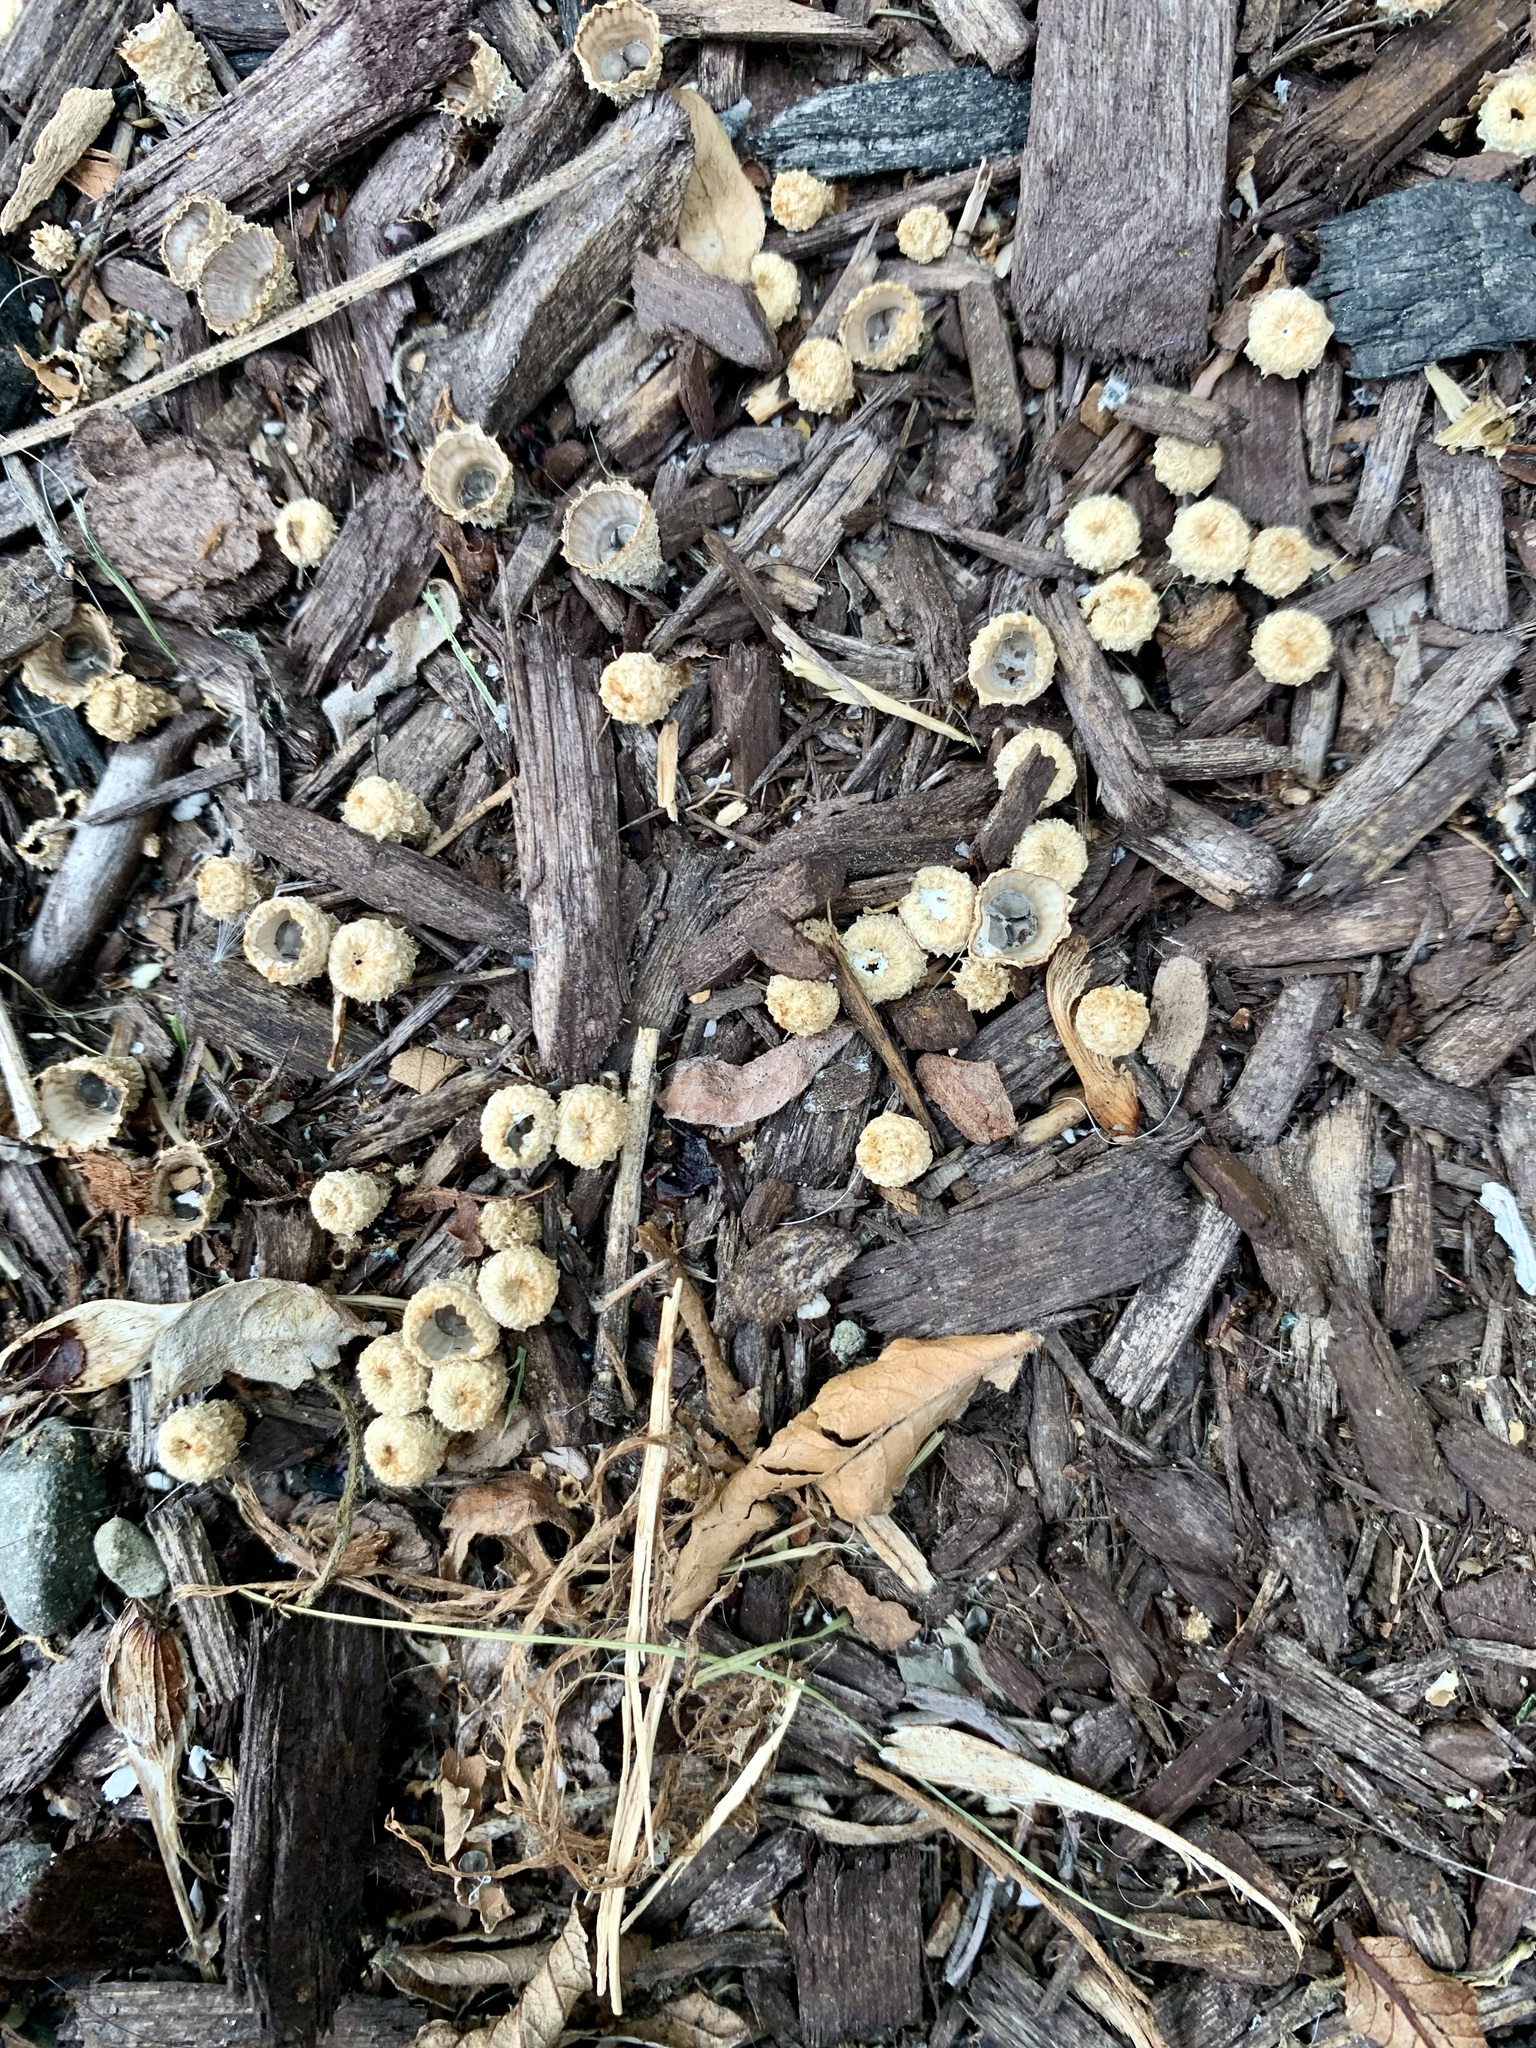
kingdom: Fungi
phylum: Basidiomycota
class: Agaricomycetes
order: Agaricales
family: Agaricaceae
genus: Cyathus
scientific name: Cyathus striatus
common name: Fluted bird's nest
